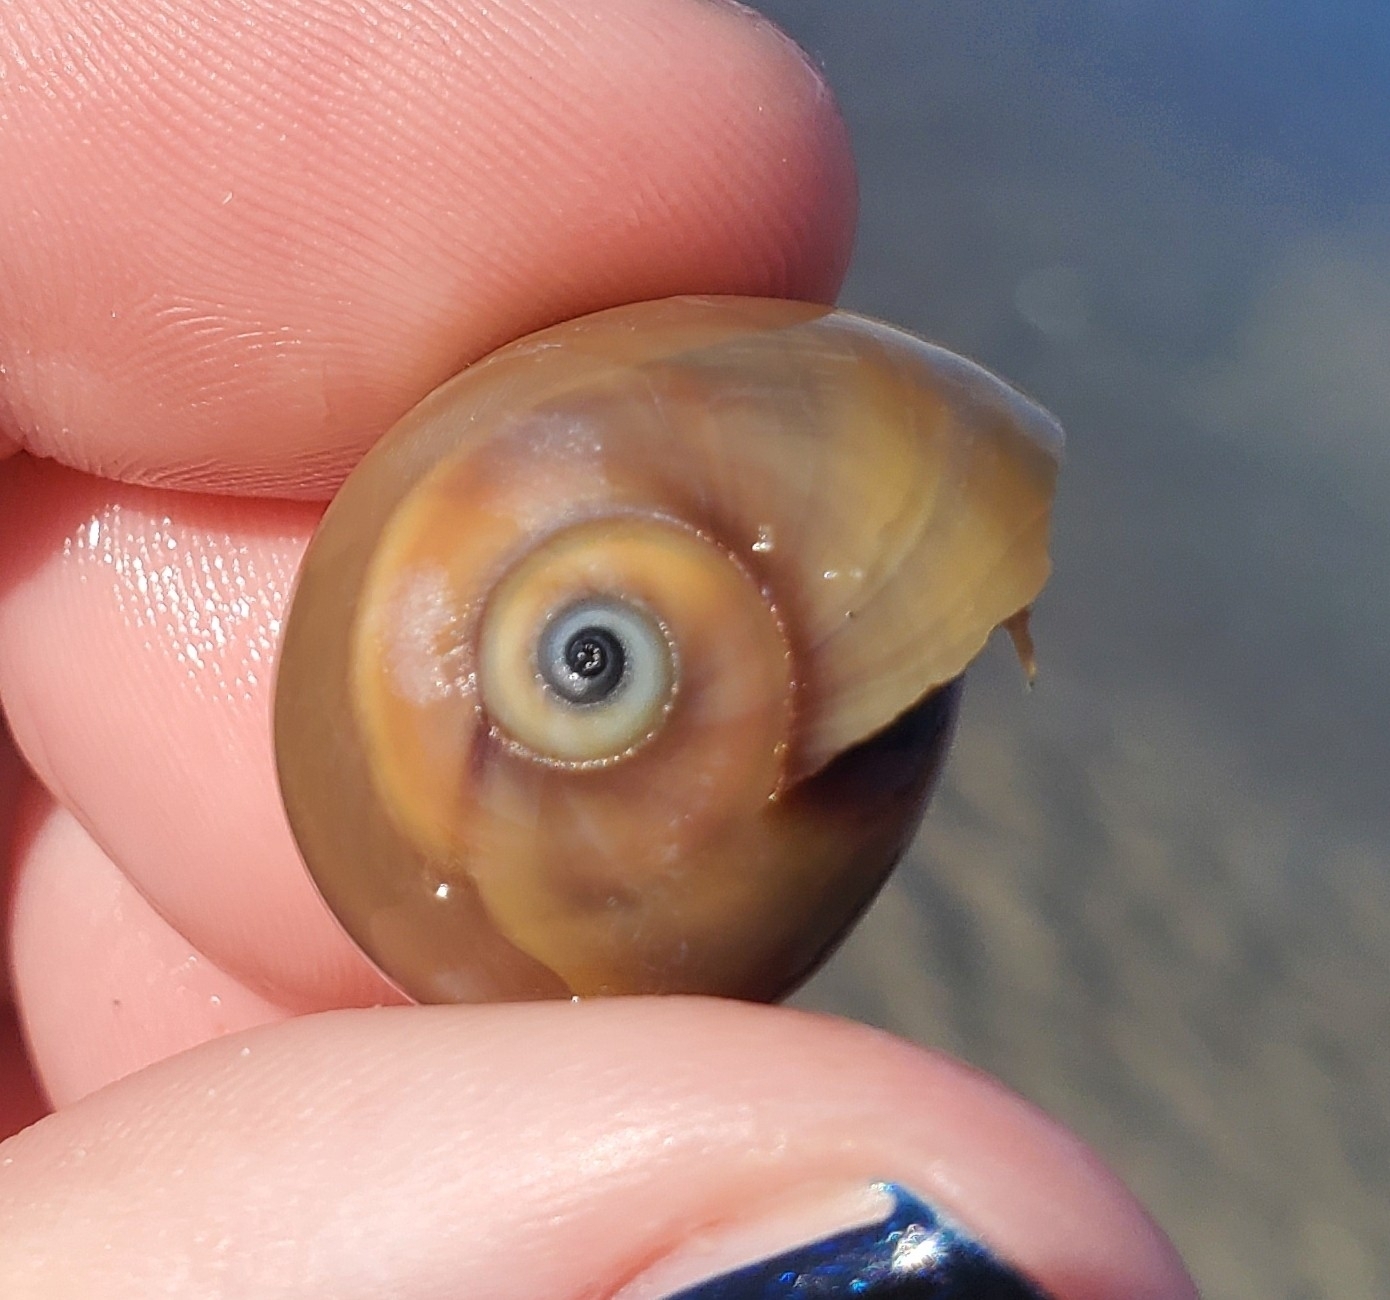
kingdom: Animalia
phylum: Arthropoda
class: Malacostraca
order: Decapoda
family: Paguridae
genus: Pagurus
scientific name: Pagurus longicarpus
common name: Long-armed hermit crab
